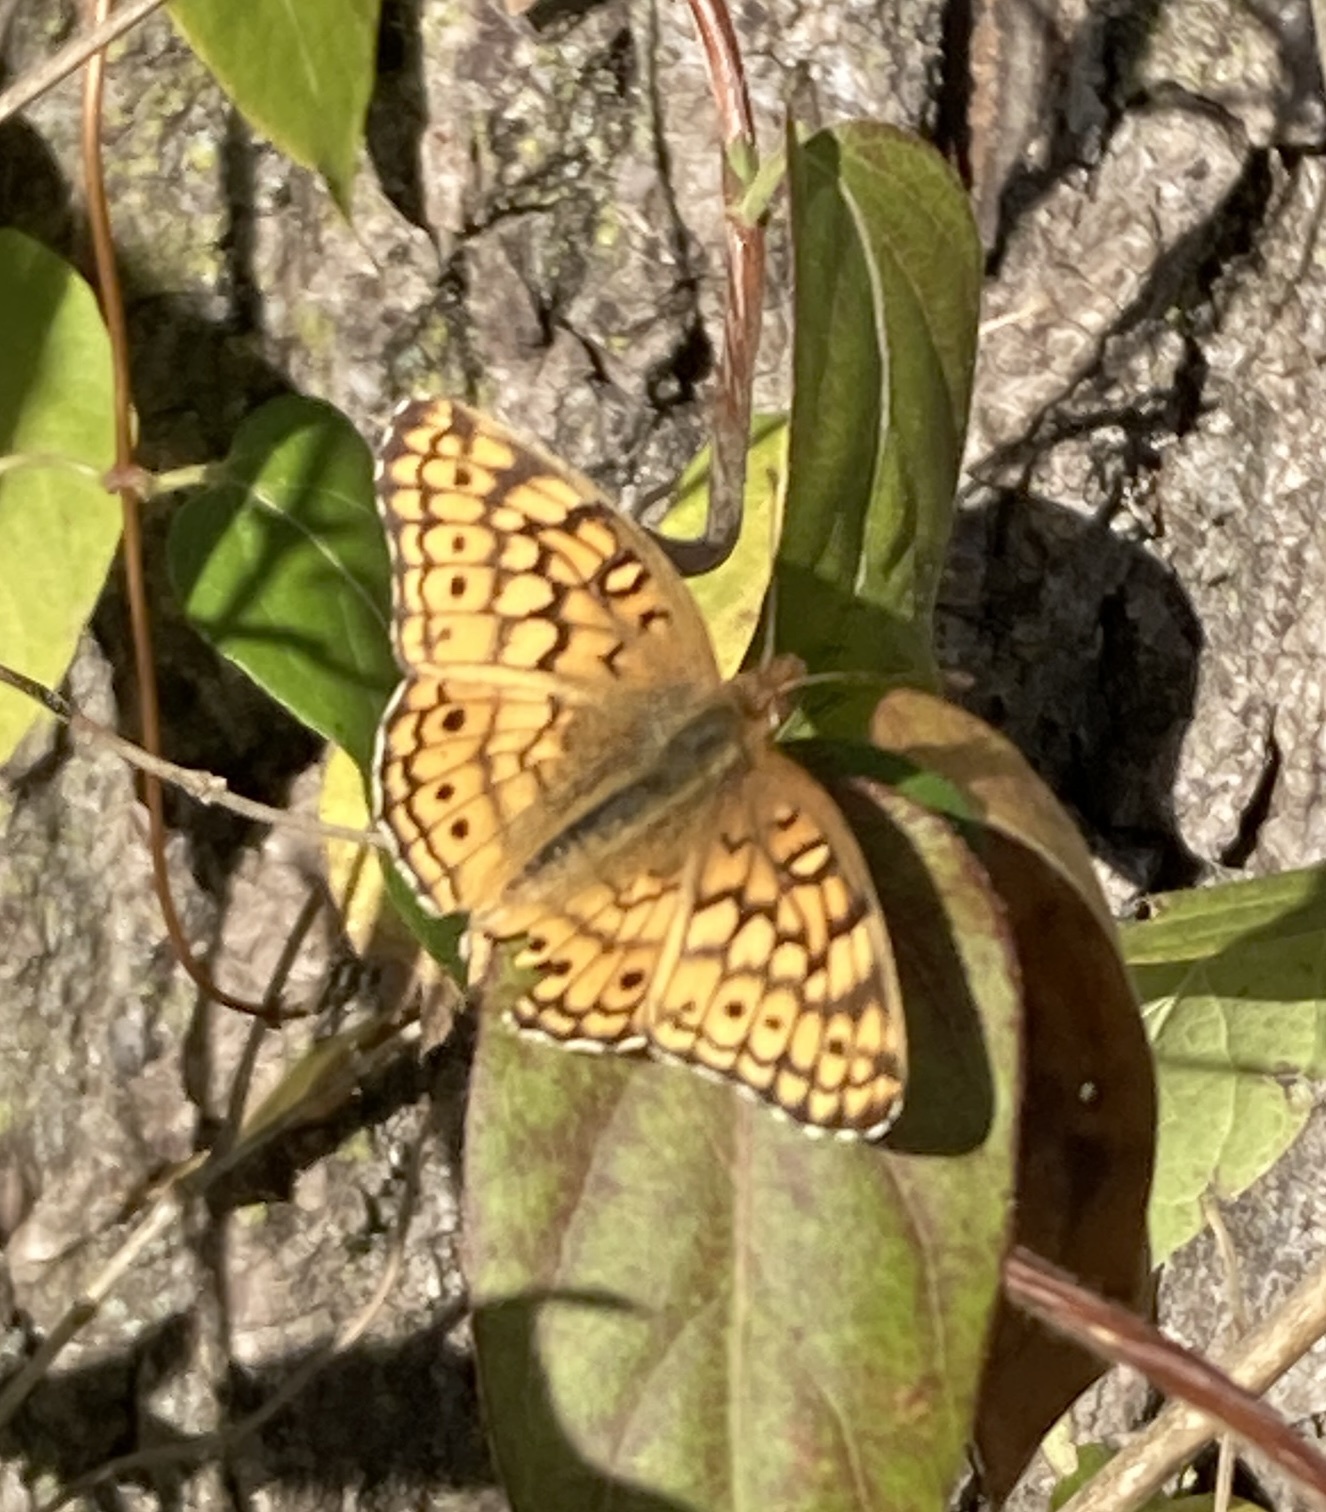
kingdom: Animalia
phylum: Arthropoda
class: Insecta
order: Lepidoptera
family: Nymphalidae
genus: Euptoieta
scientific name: Euptoieta claudia
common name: Variegated fritillary
